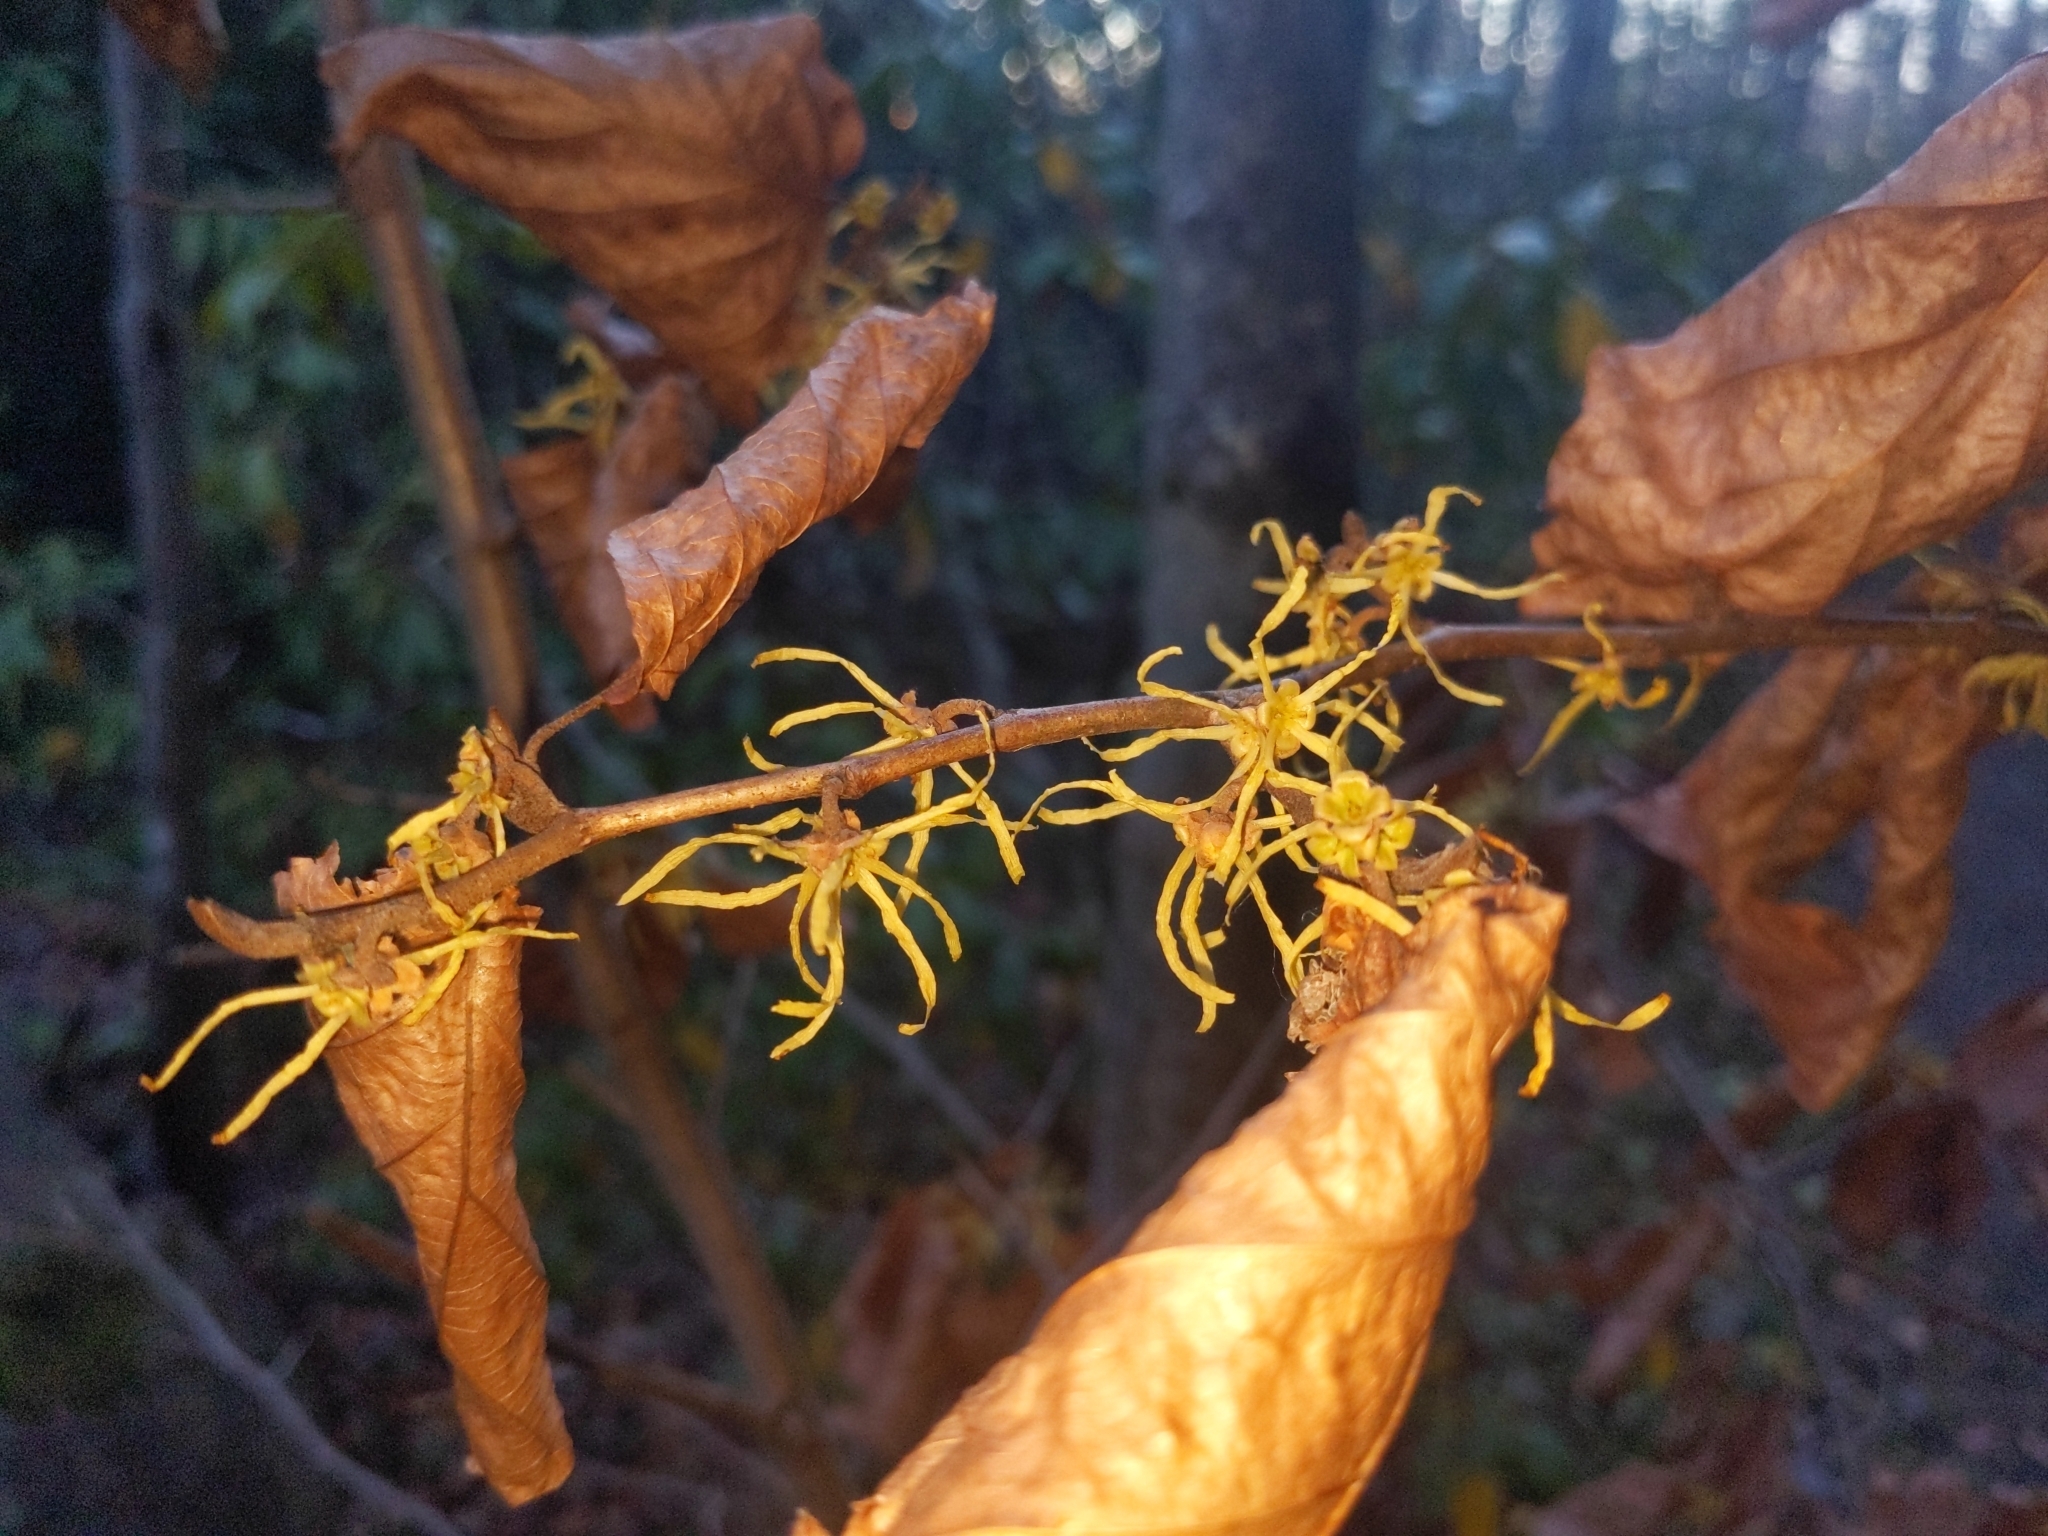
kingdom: Plantae
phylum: Tracheophyta
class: Magnoliopsida
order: Saxifragales
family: Hamamelidaceae
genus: Hamamelis
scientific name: Hamamelis virginiana
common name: Witch-hazel
